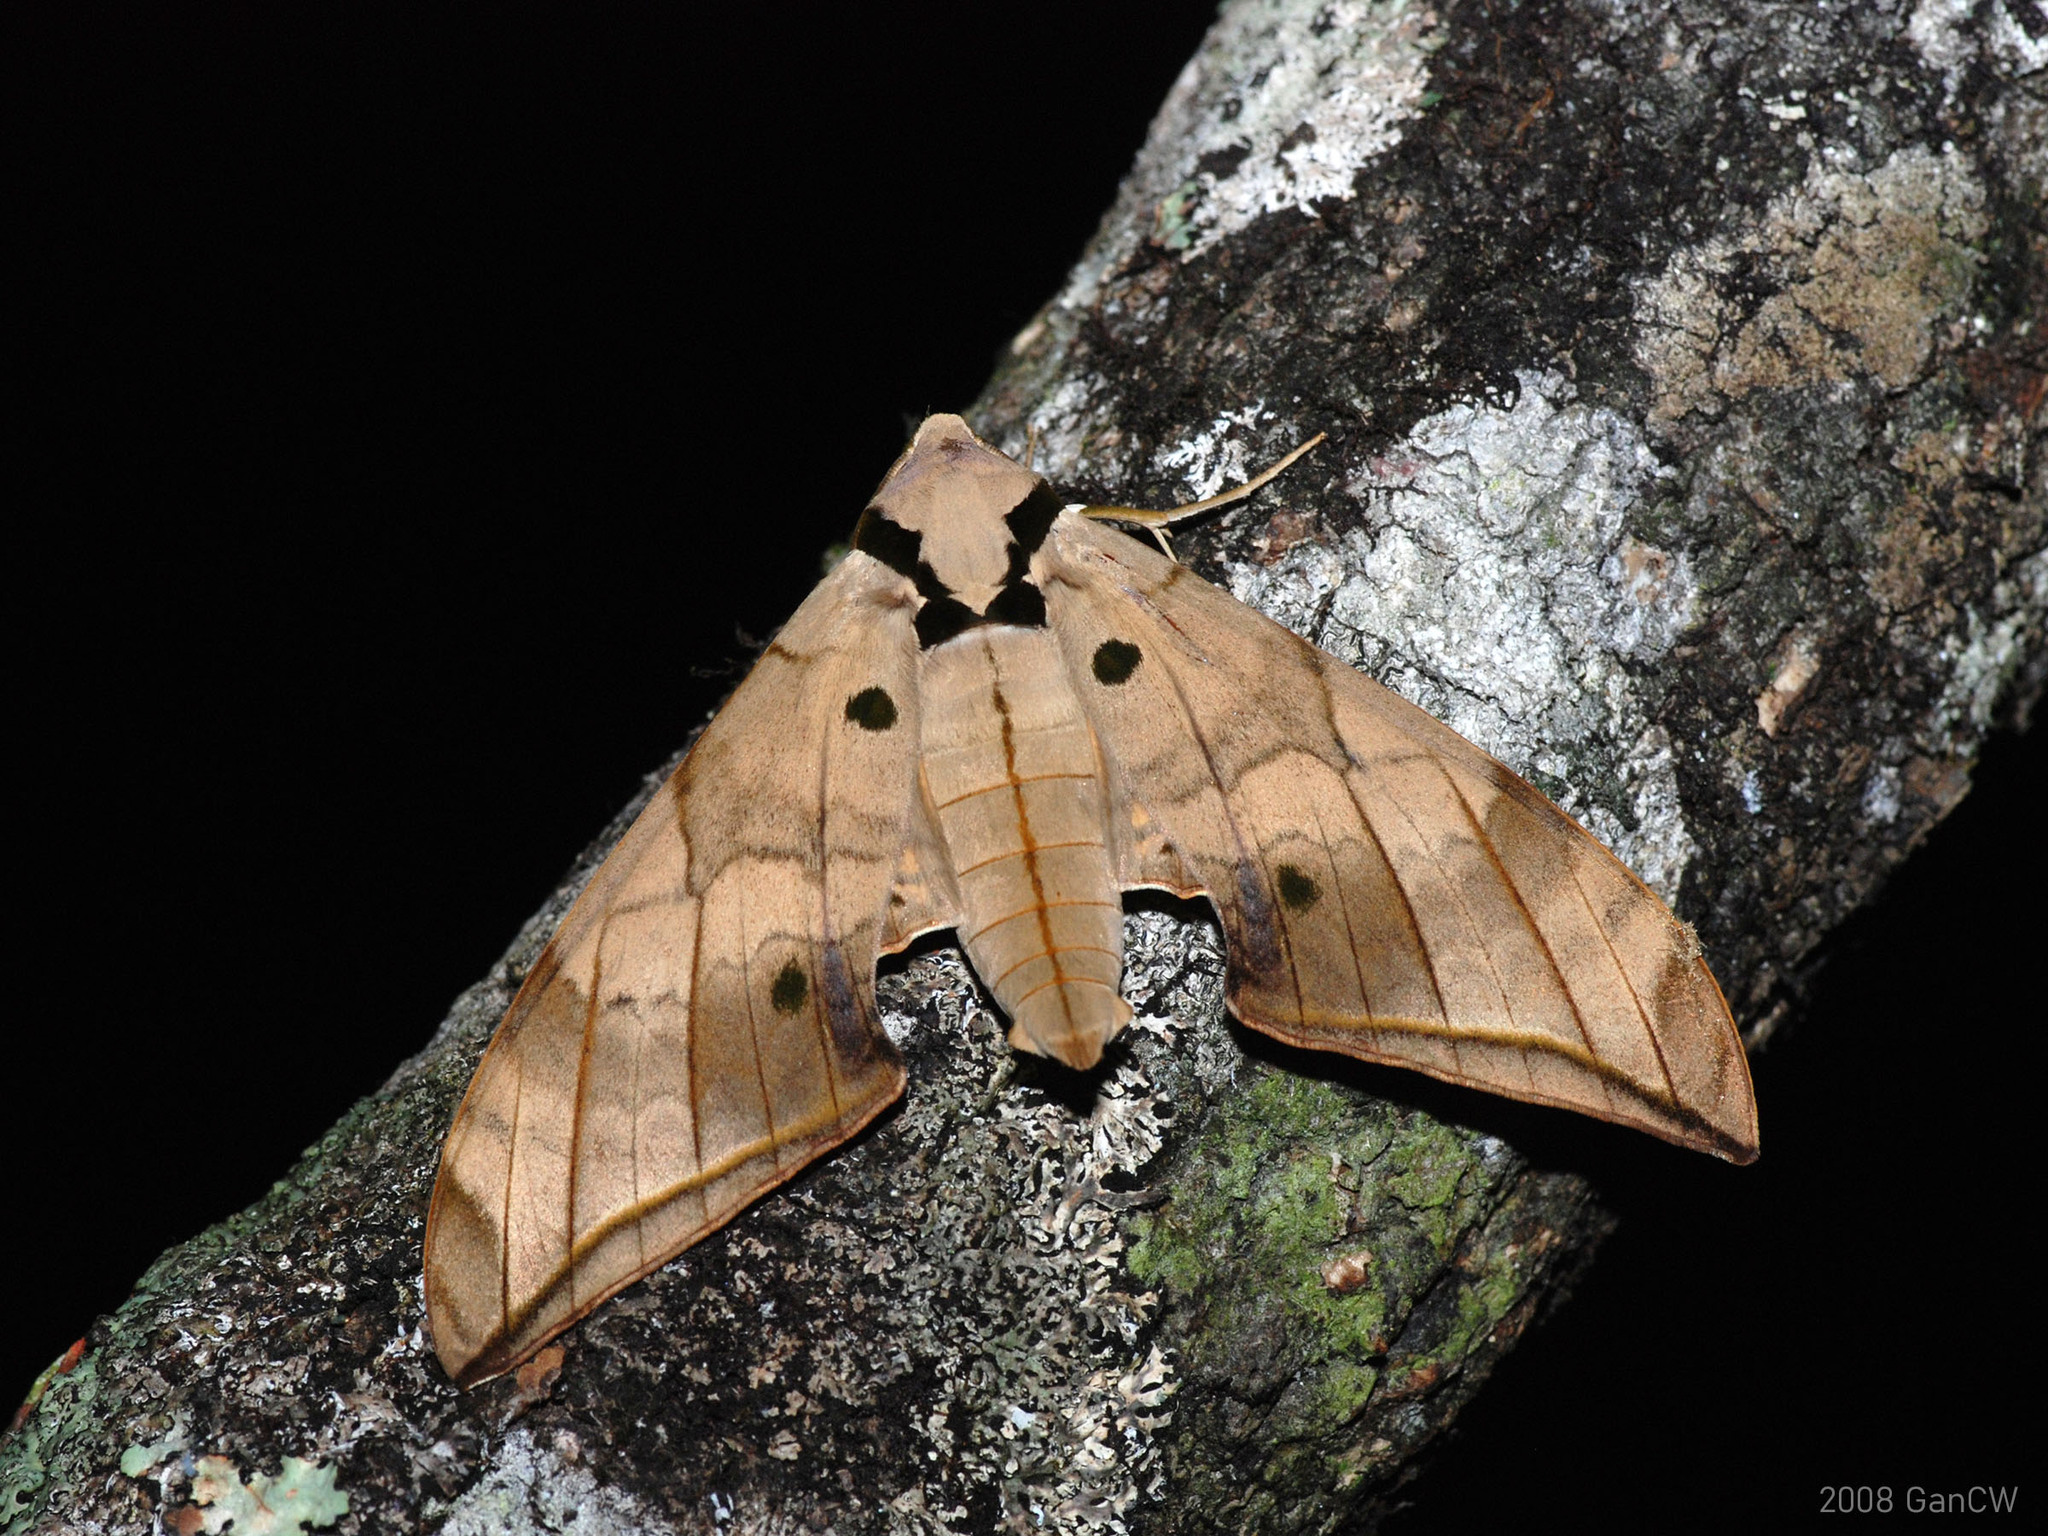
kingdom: Animalia
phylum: Arthropoda
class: Insecta
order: Lepidoptera
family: Sphingidae
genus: Ambulyx
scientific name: Ambulyx substrigilis
